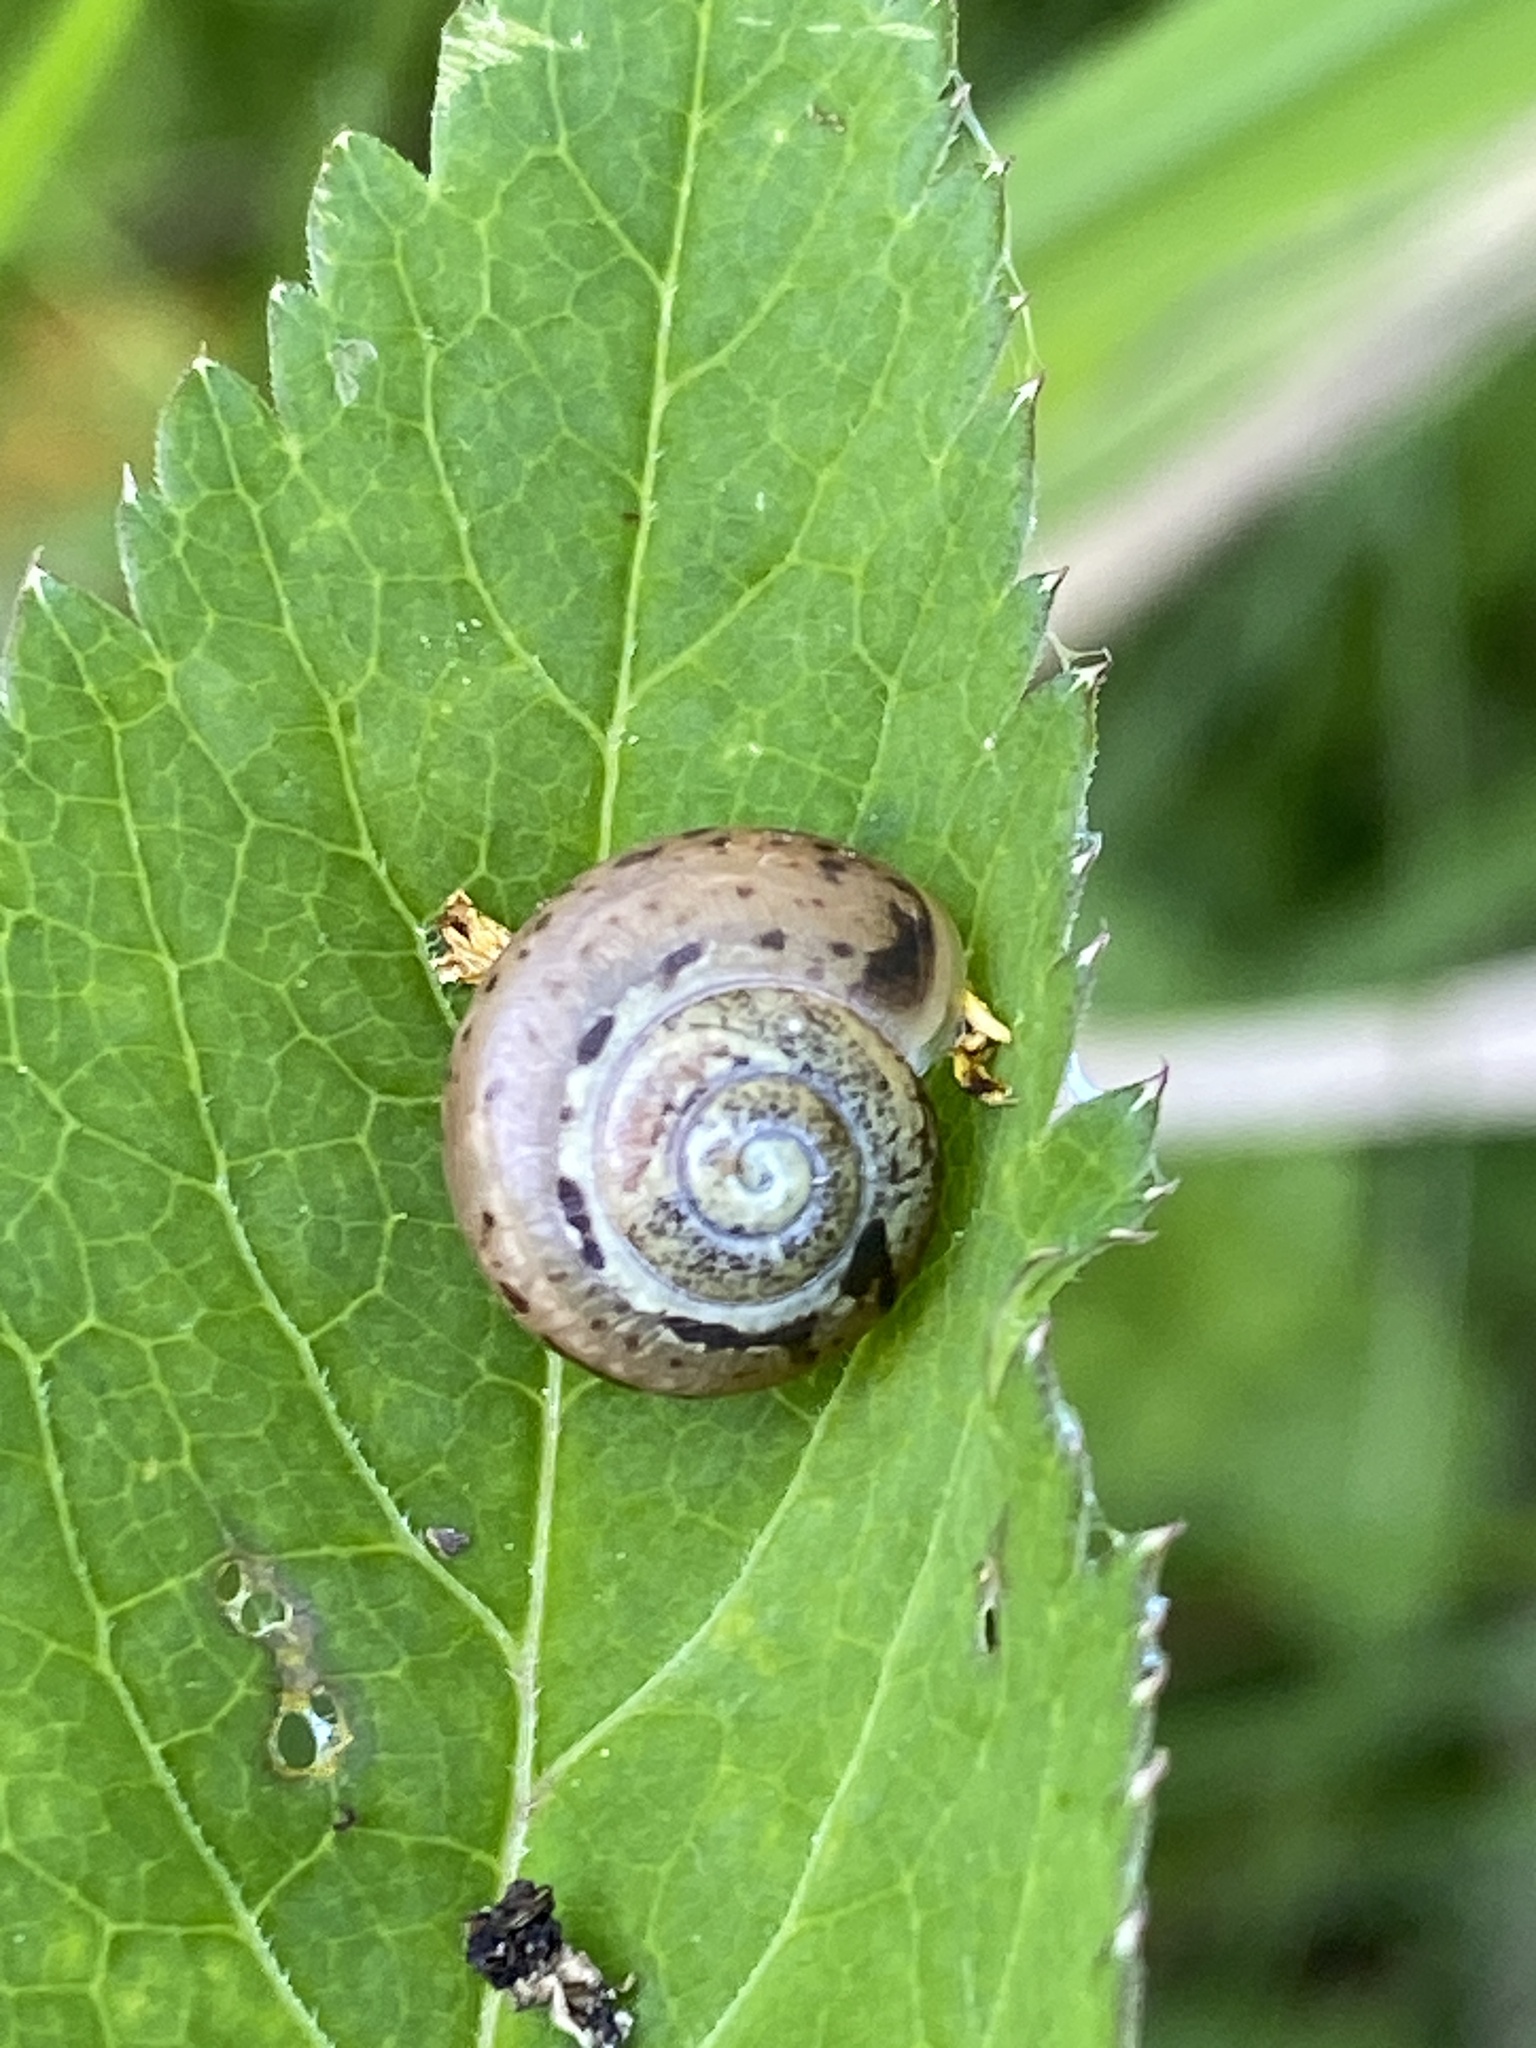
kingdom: Animalia
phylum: Mollusca
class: Gastropoda
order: Stylommatophora
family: Camaenidae
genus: Fruticicola
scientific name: Fruticicola fruticum
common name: Bush snail
